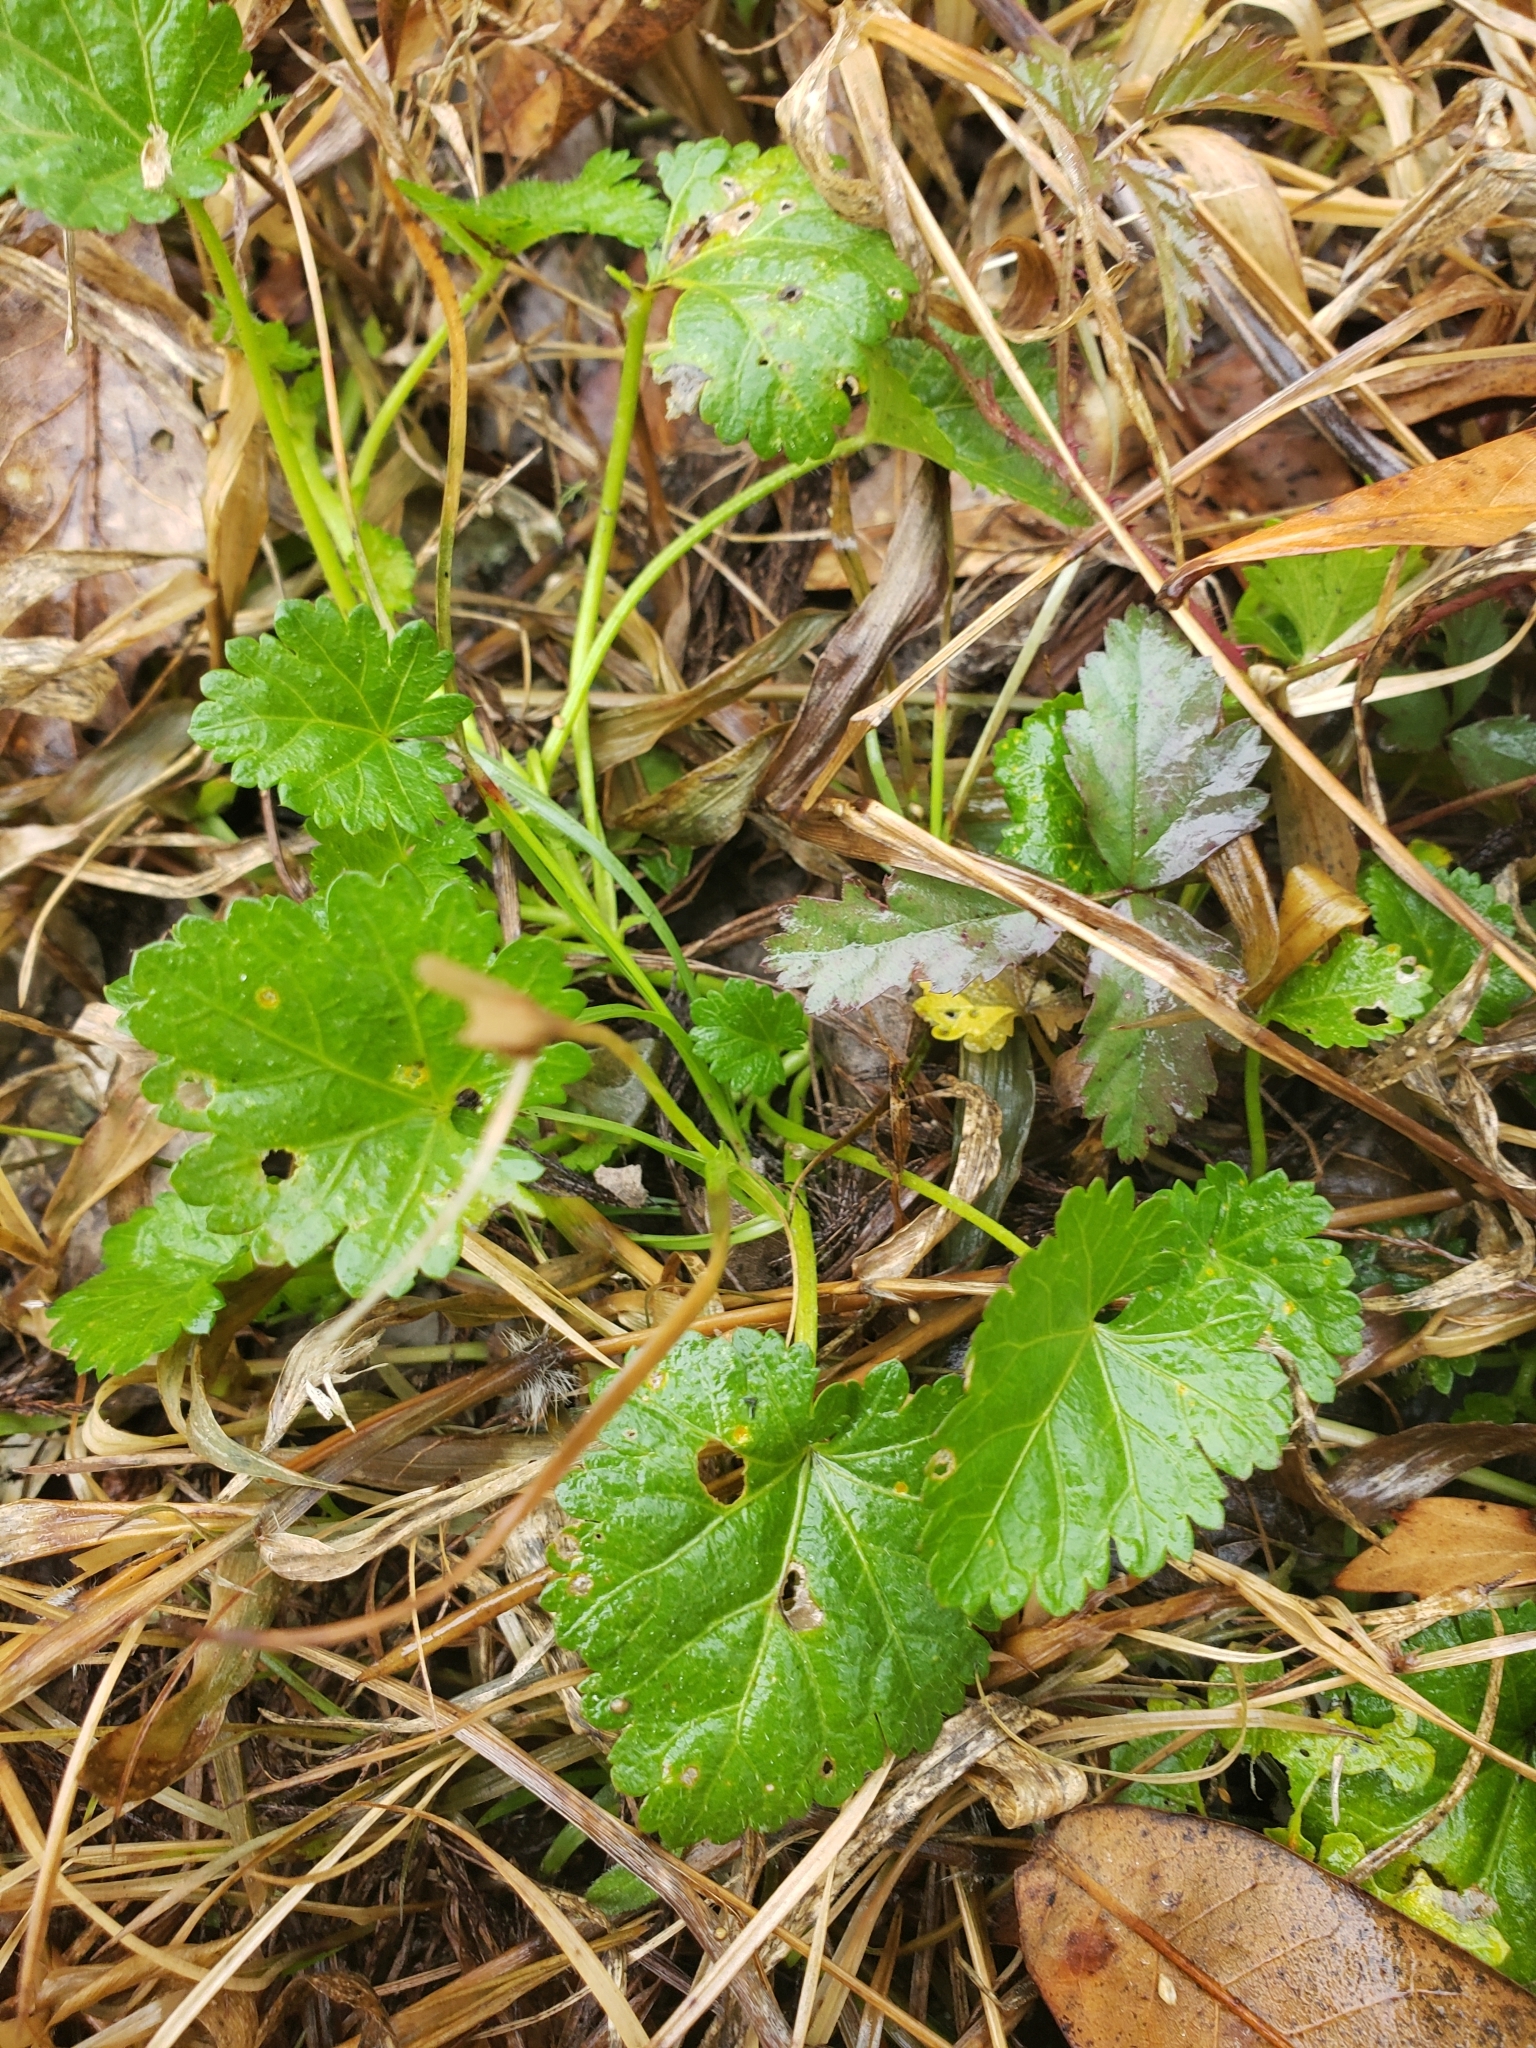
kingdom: Plantae
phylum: Tracheophyta
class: Magnoliopsida
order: Malvales
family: Malvaceae
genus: Modiola
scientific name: Modiola caroliniana
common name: Carolina bristlemallow
